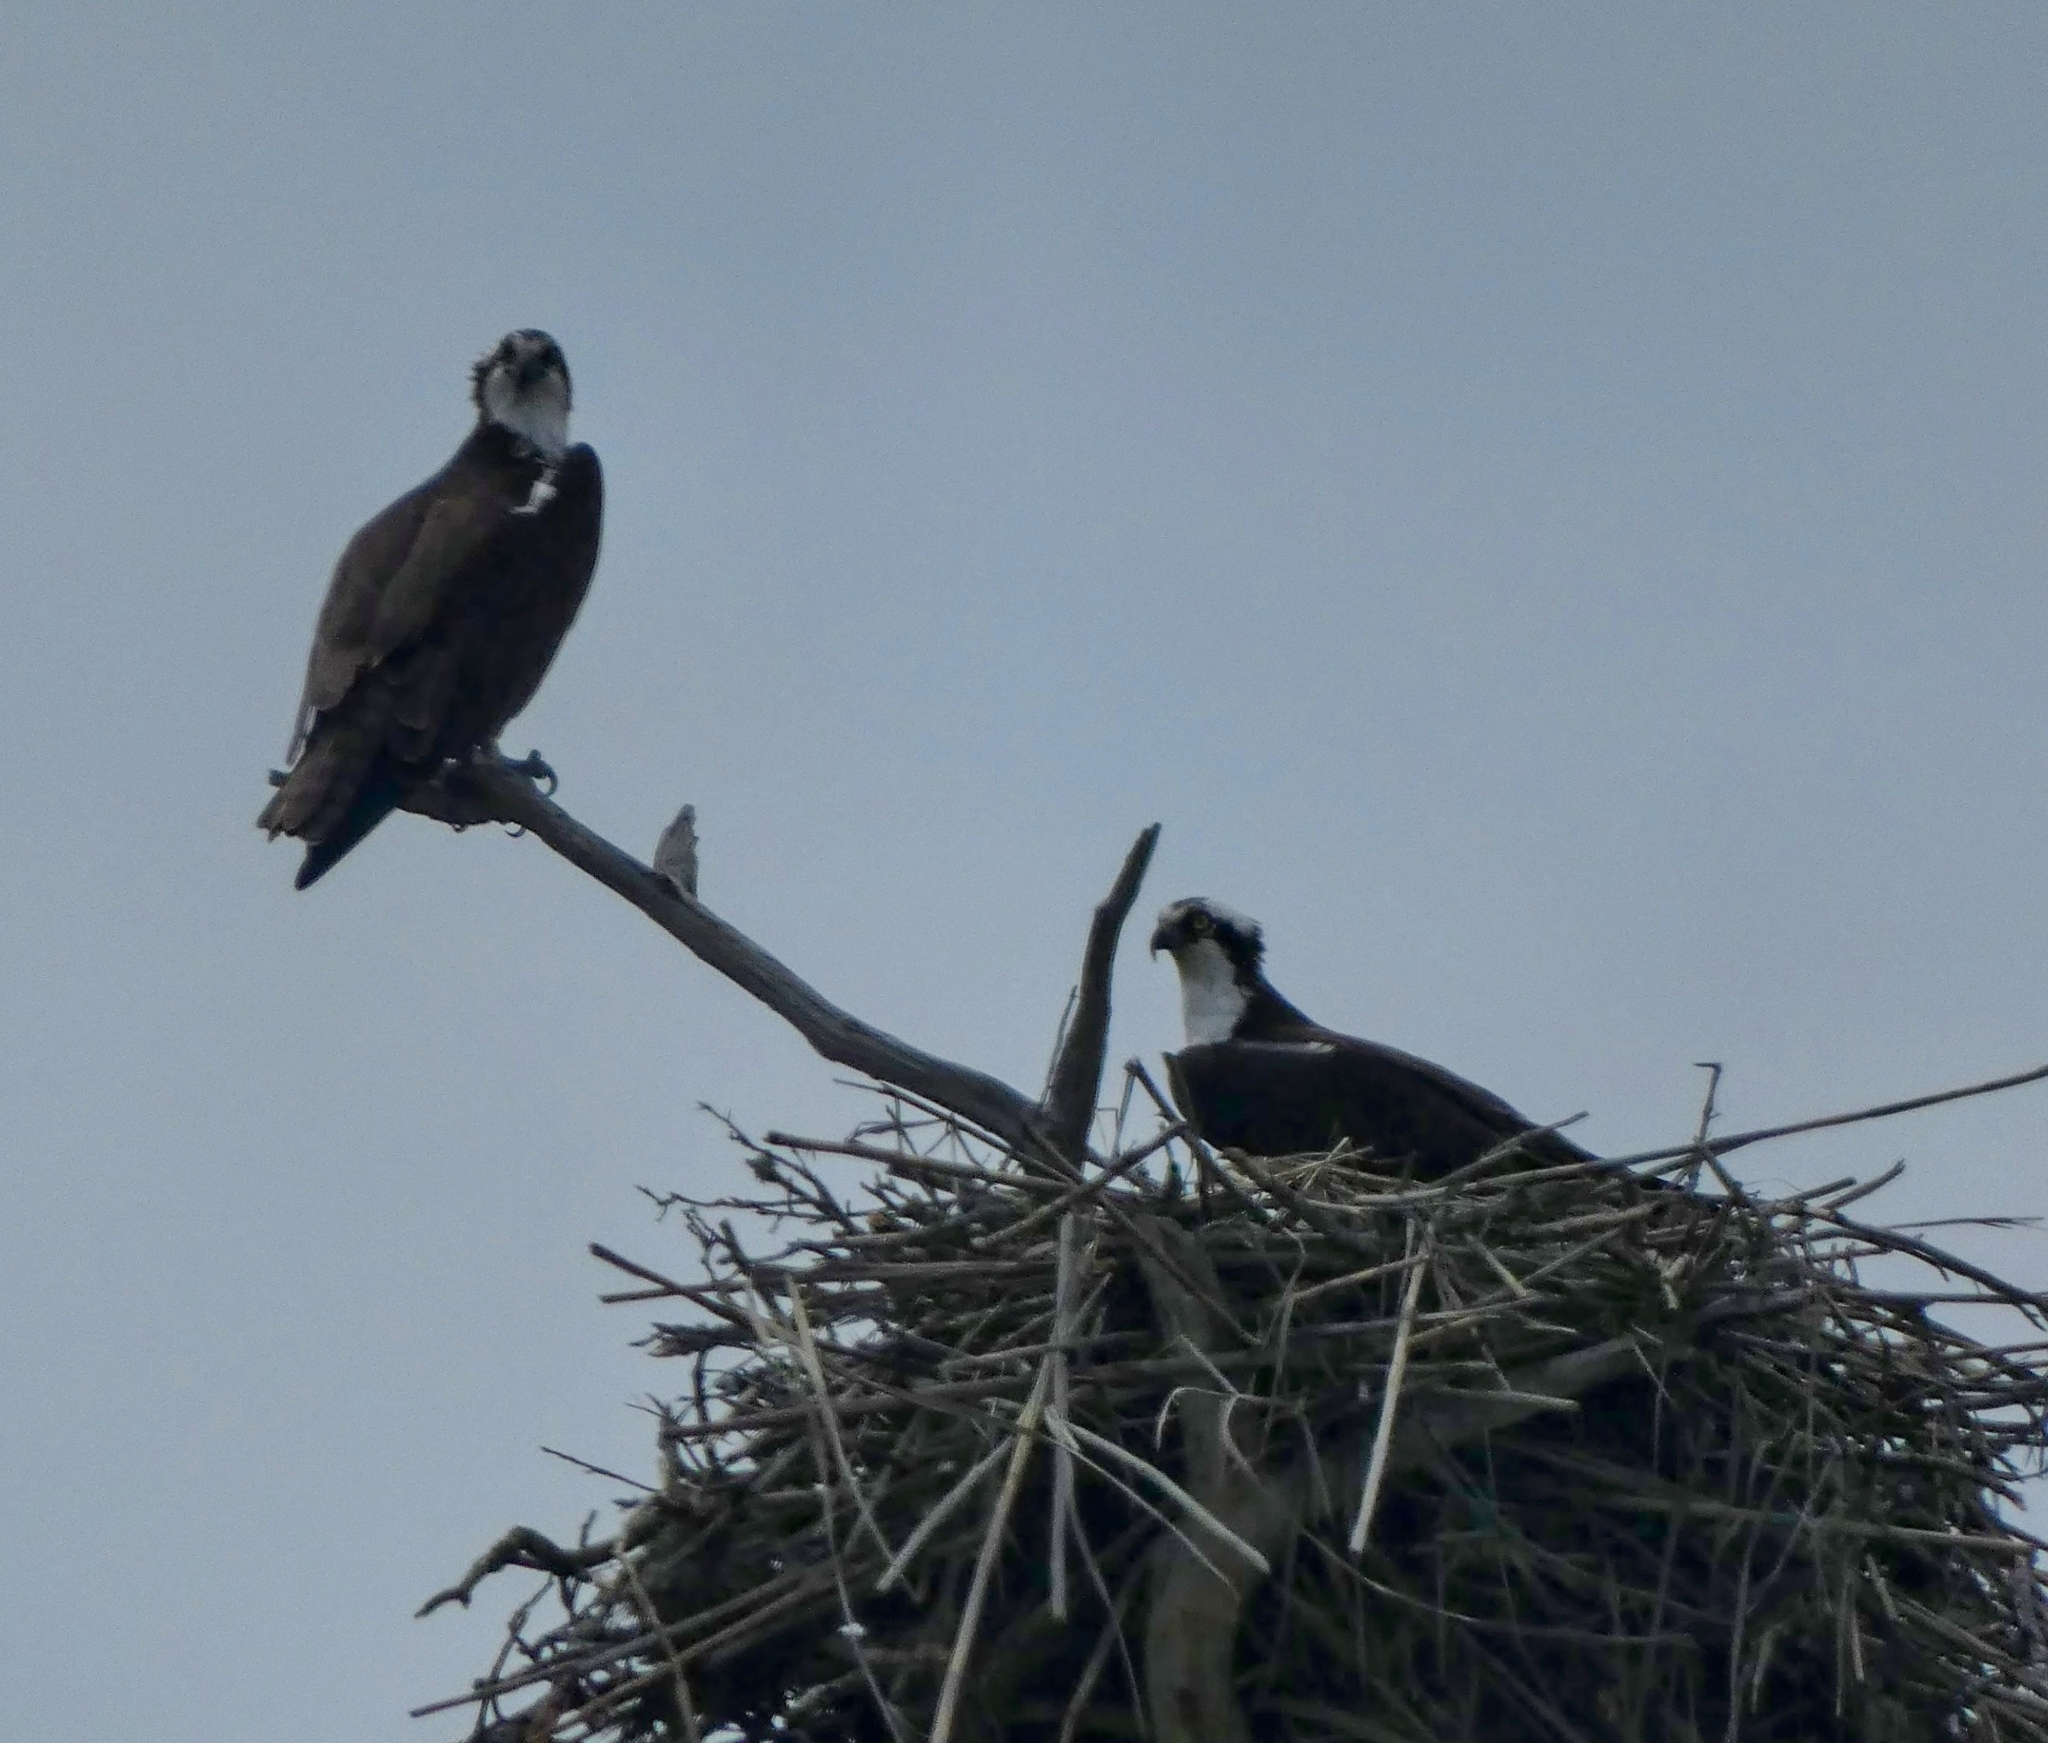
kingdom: Animalia
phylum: Chordata
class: Aves
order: Accipitriformes
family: Pandionidae
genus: Pandion
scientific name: Pandion haliaetus
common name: Osprey
